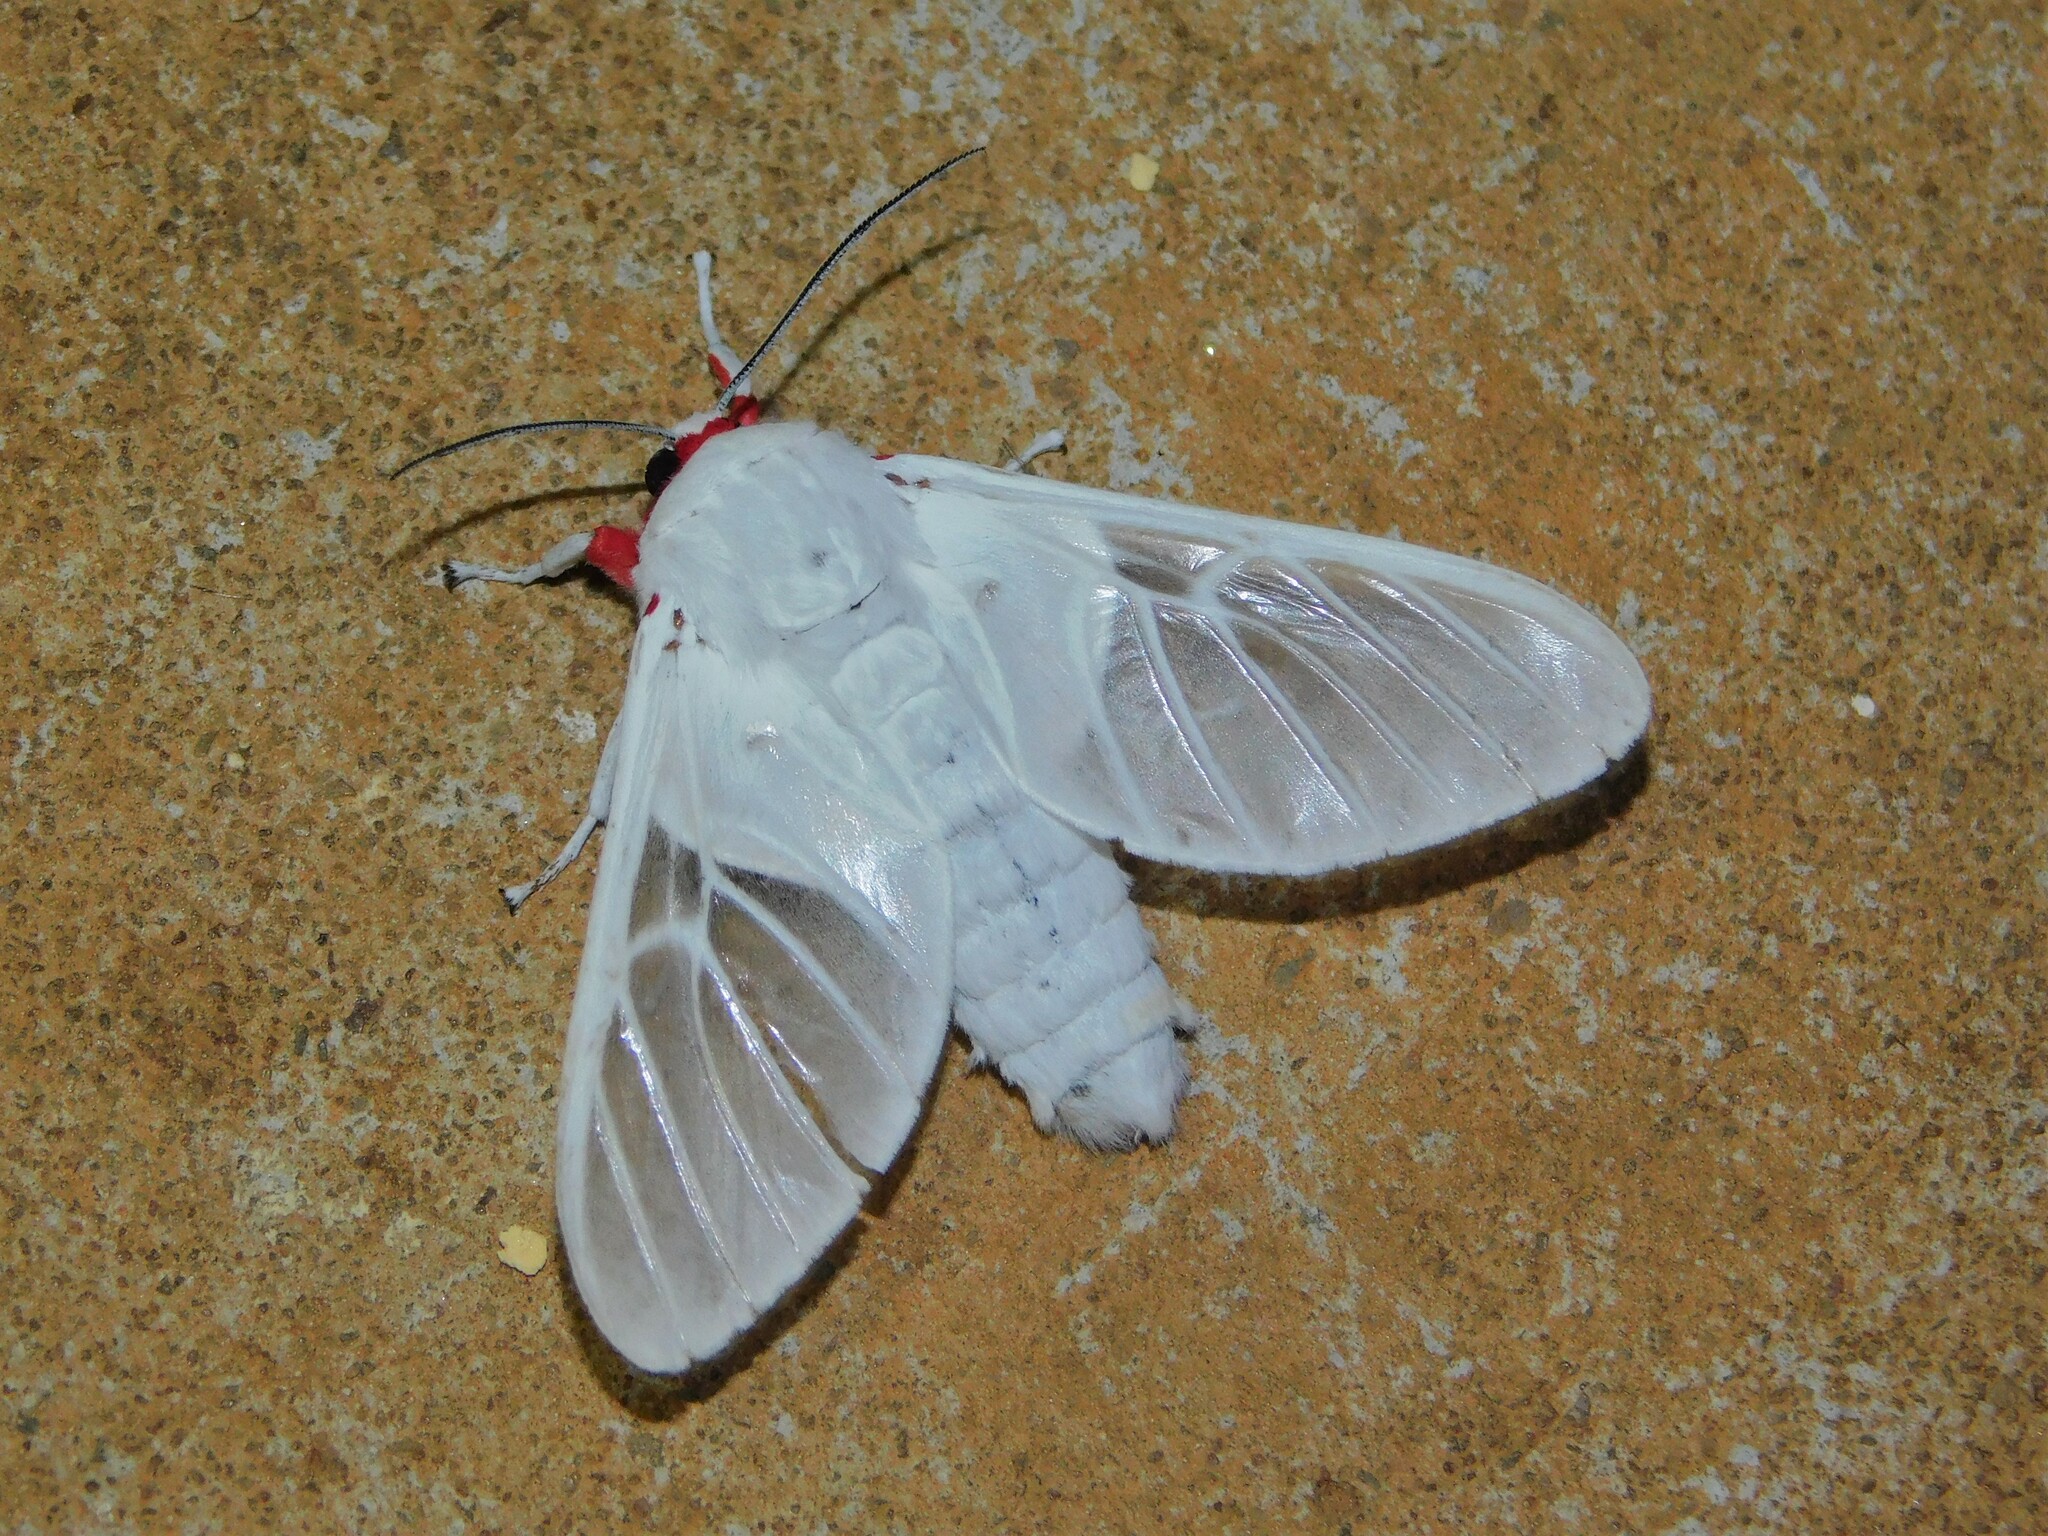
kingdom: Animalia
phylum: Arthropoda
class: Insecta
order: Lepidoptera
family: Erebidae
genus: Balacra
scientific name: Balacra pulchra
